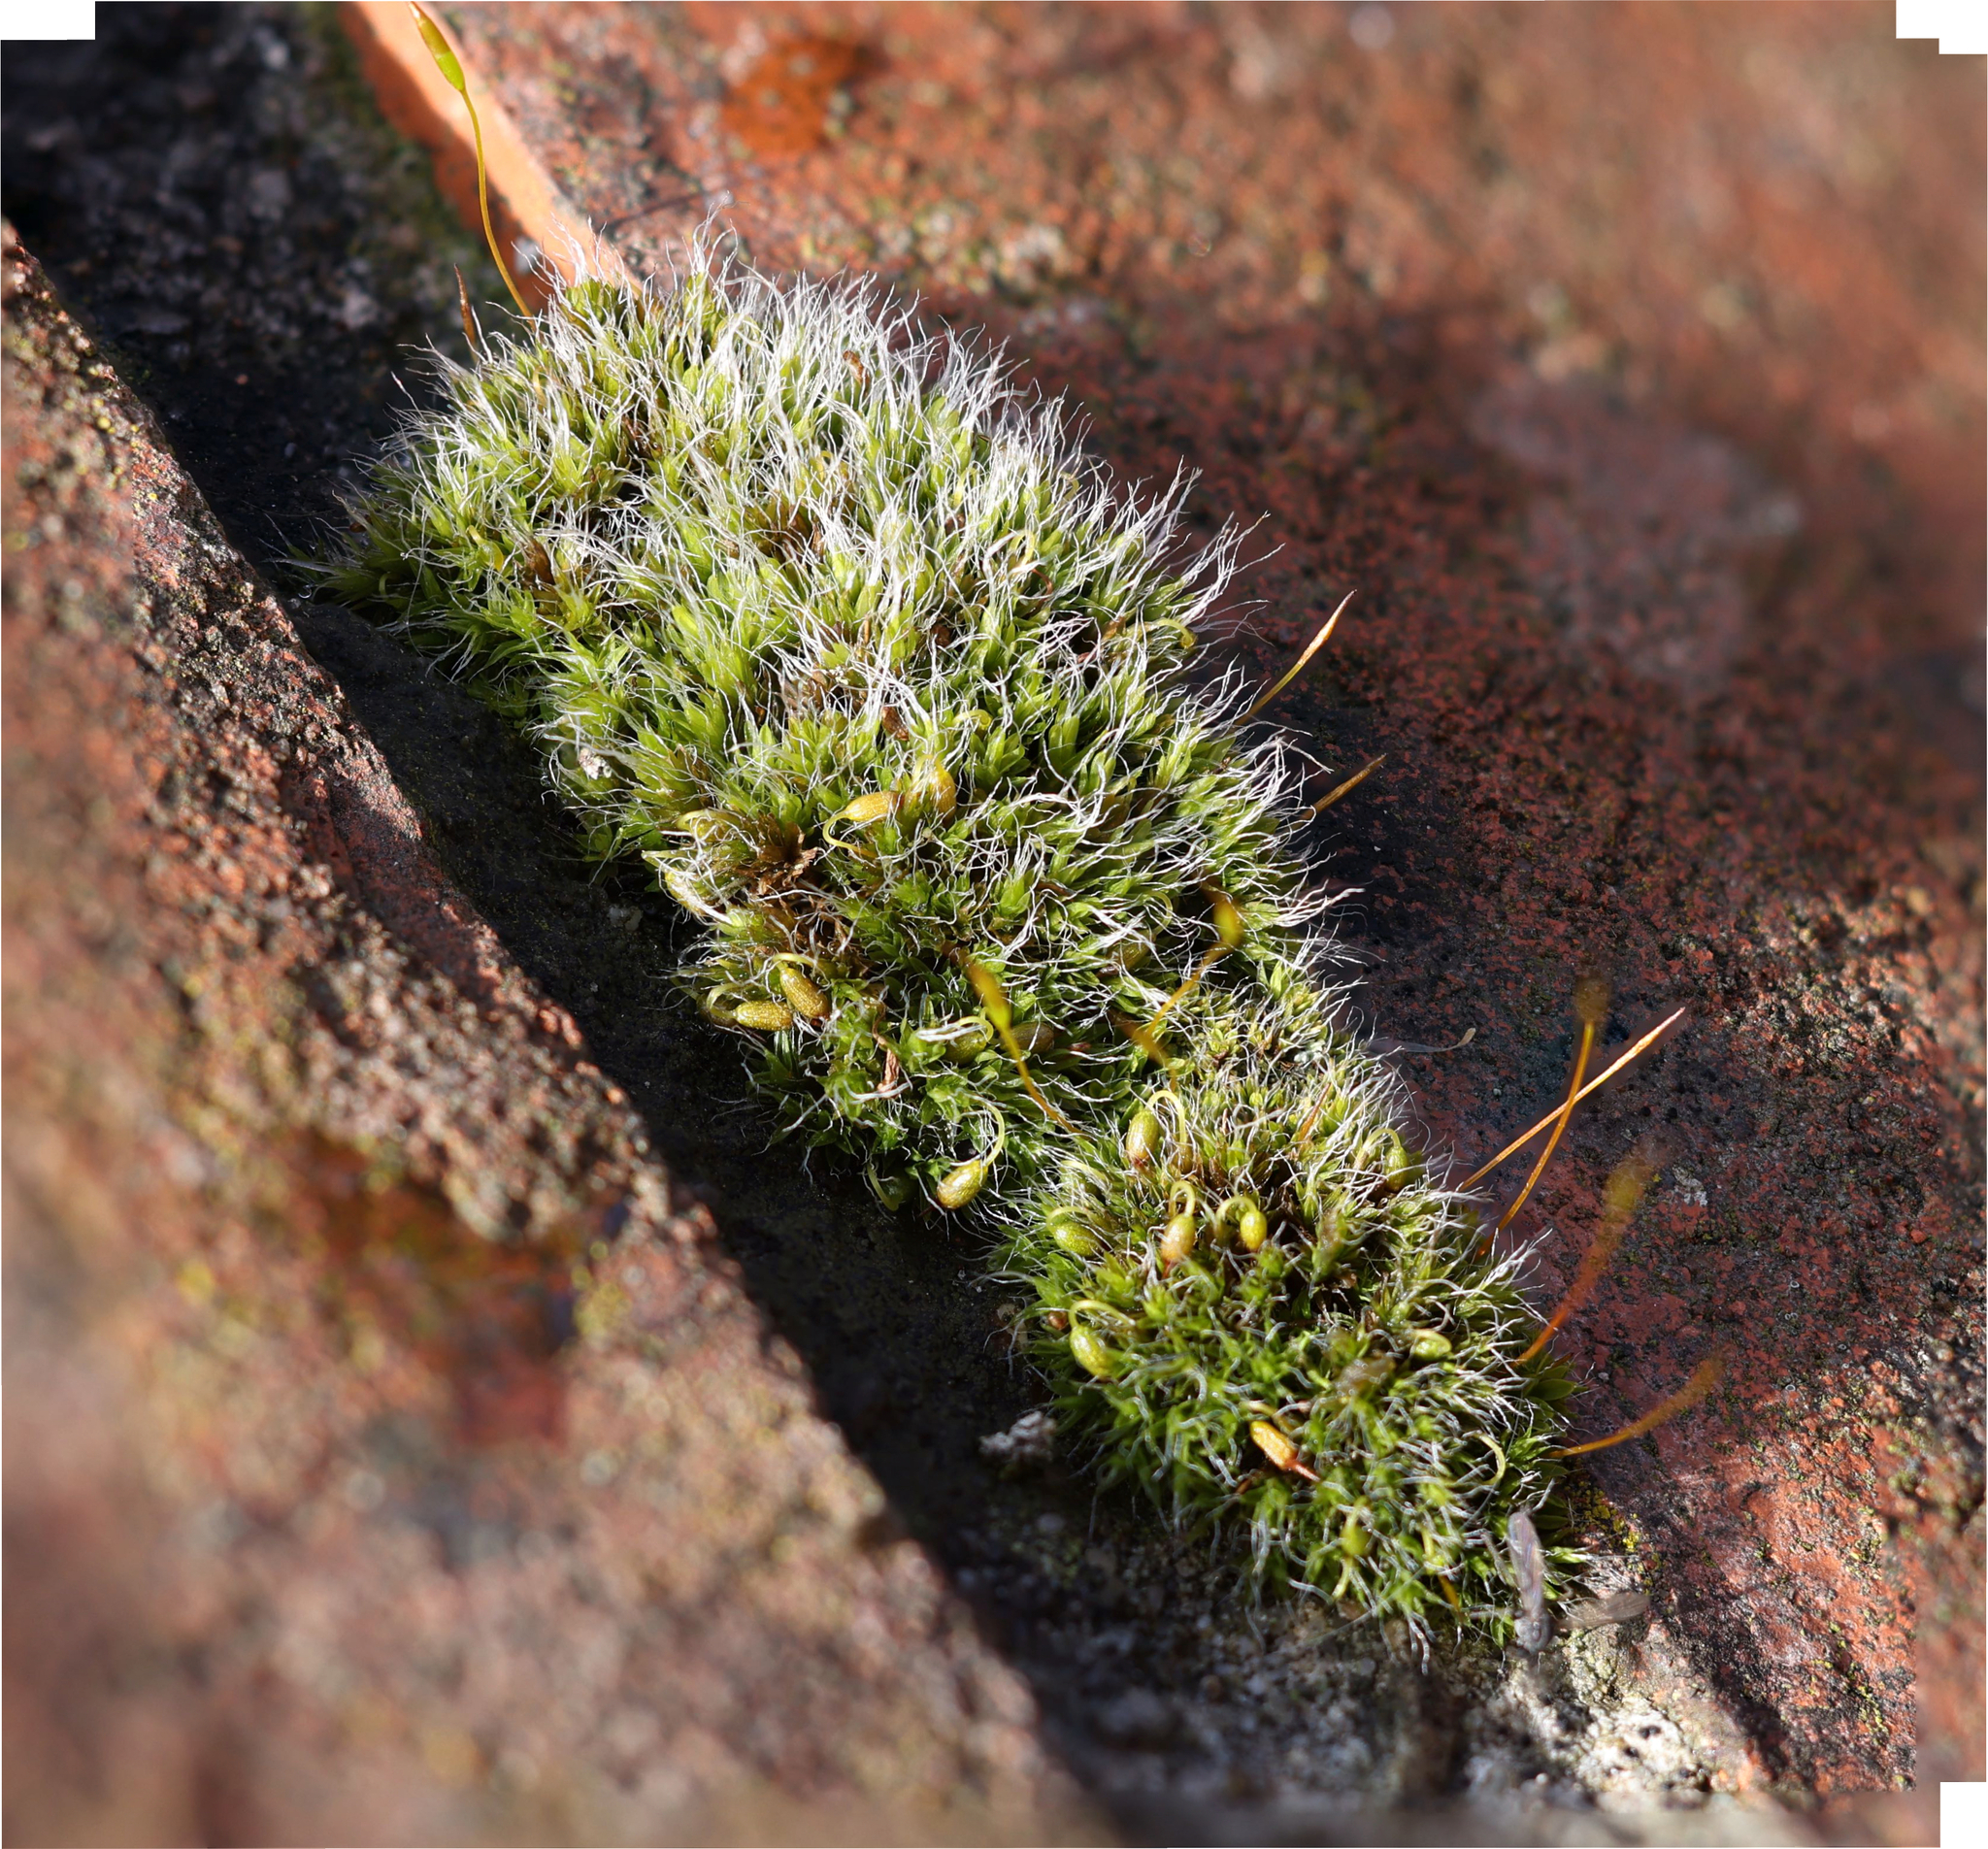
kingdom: Plantae
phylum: Bryophyta
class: Bryopsida
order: Grimmiales
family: Grimmiaceae
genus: Grimmia
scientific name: Grimmia pulvinata
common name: Grey-cushioned grimmia
